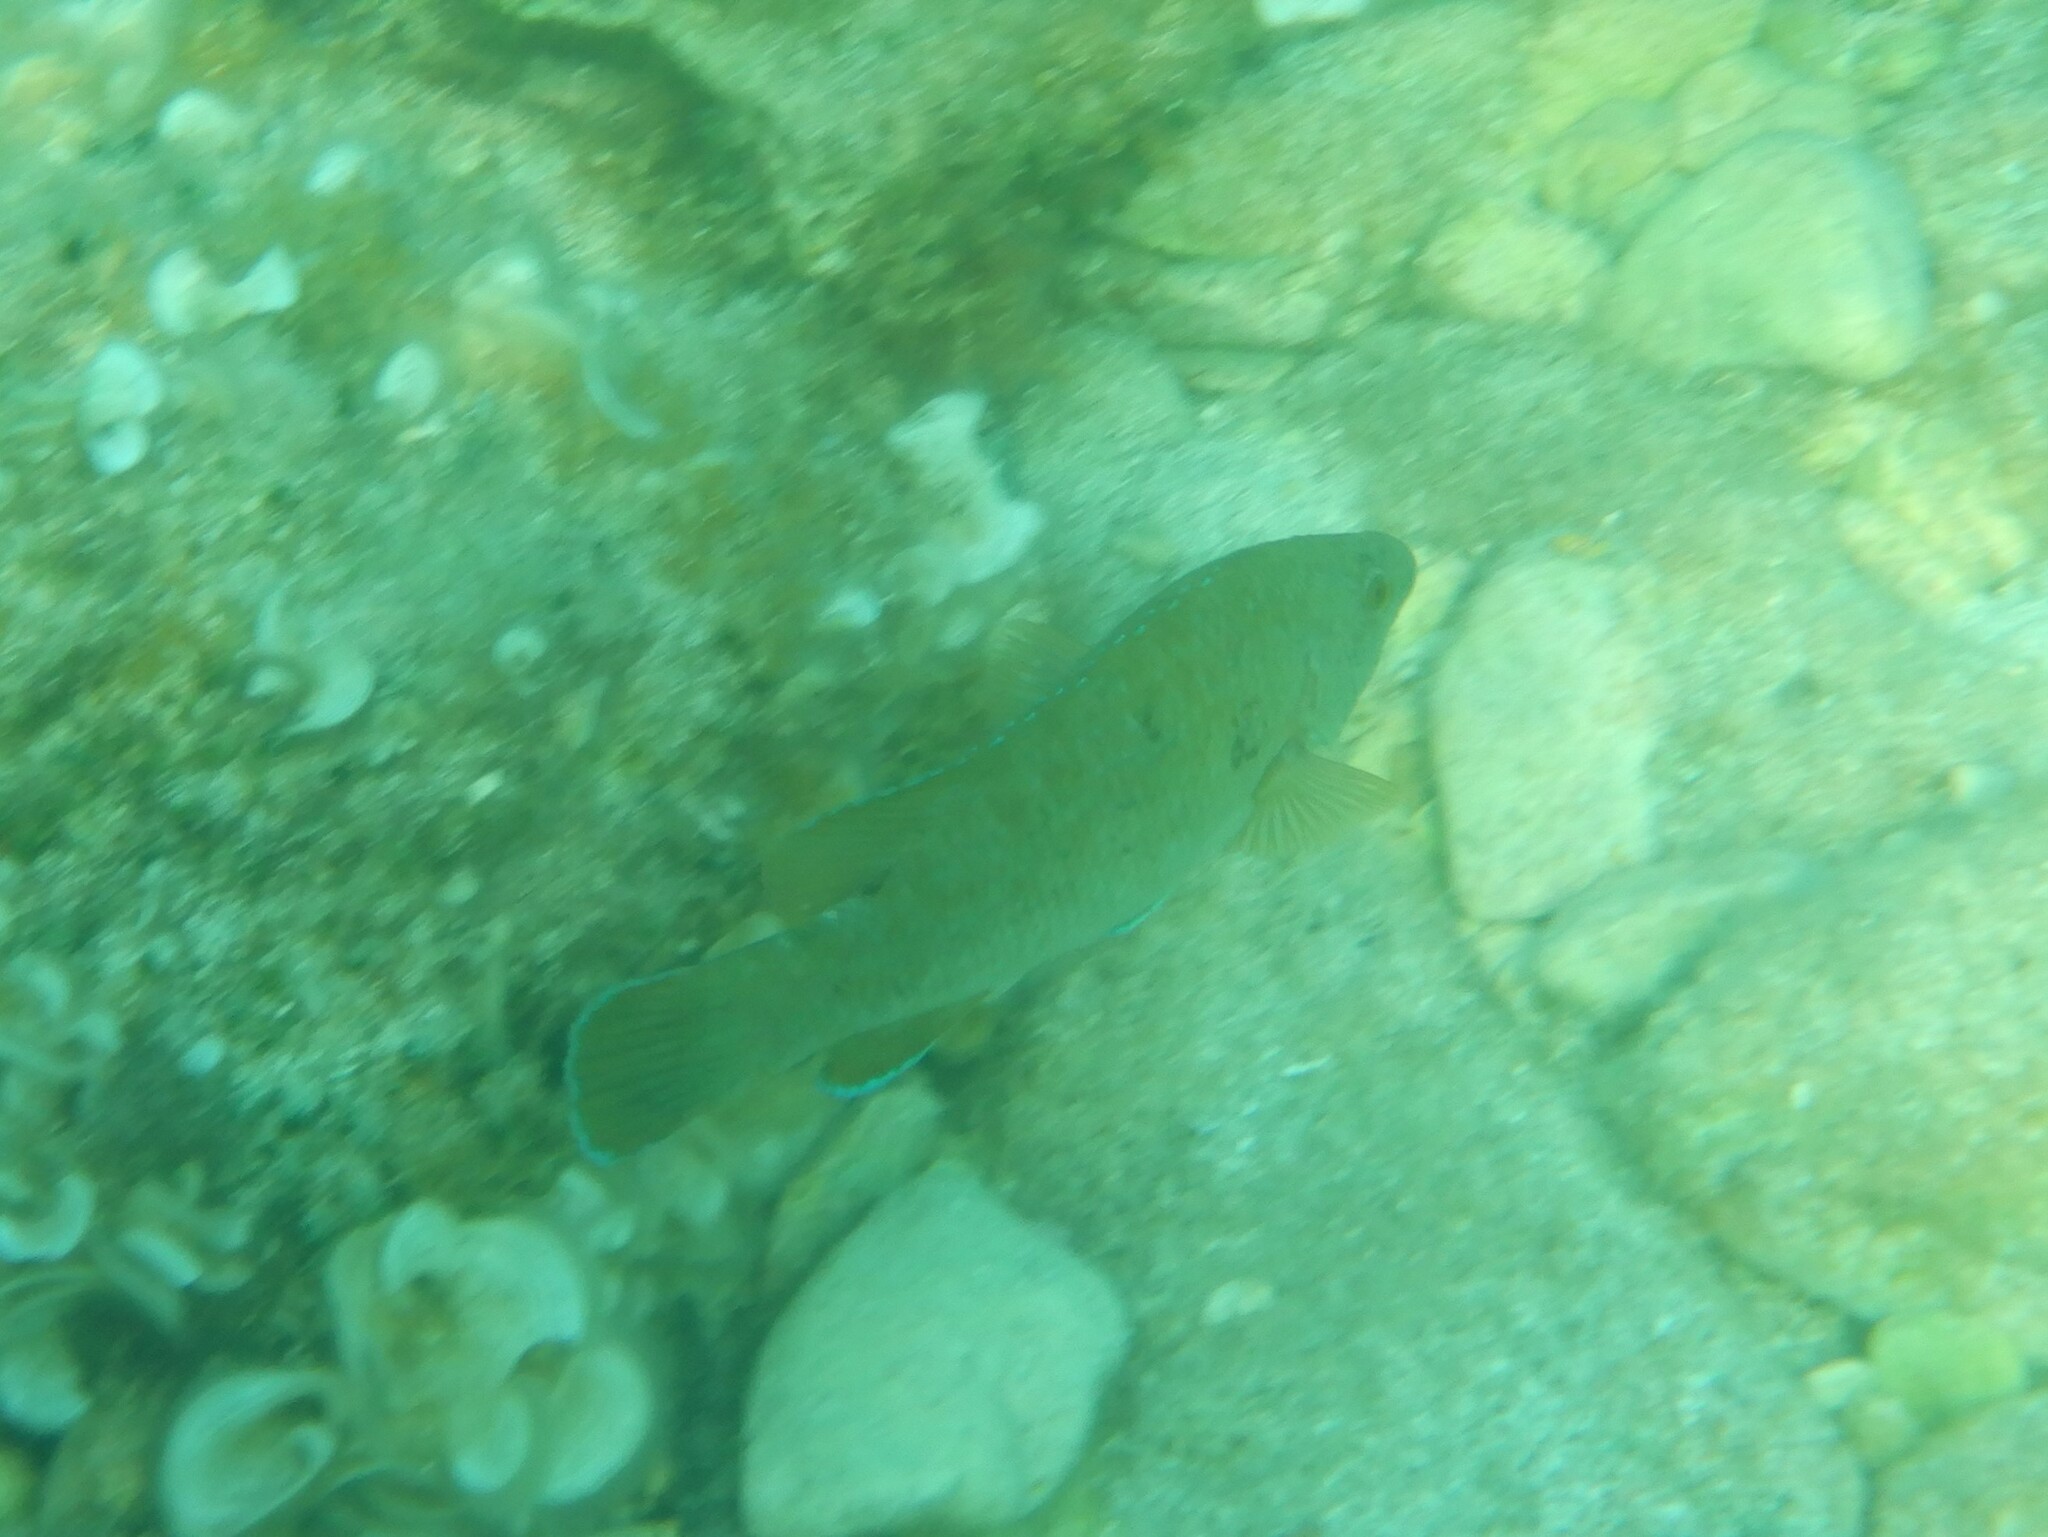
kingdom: Animalia
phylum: Chordata
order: Perciformes
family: Labridae
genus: Labrus
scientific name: Labrus merula
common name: Brown wrasse
